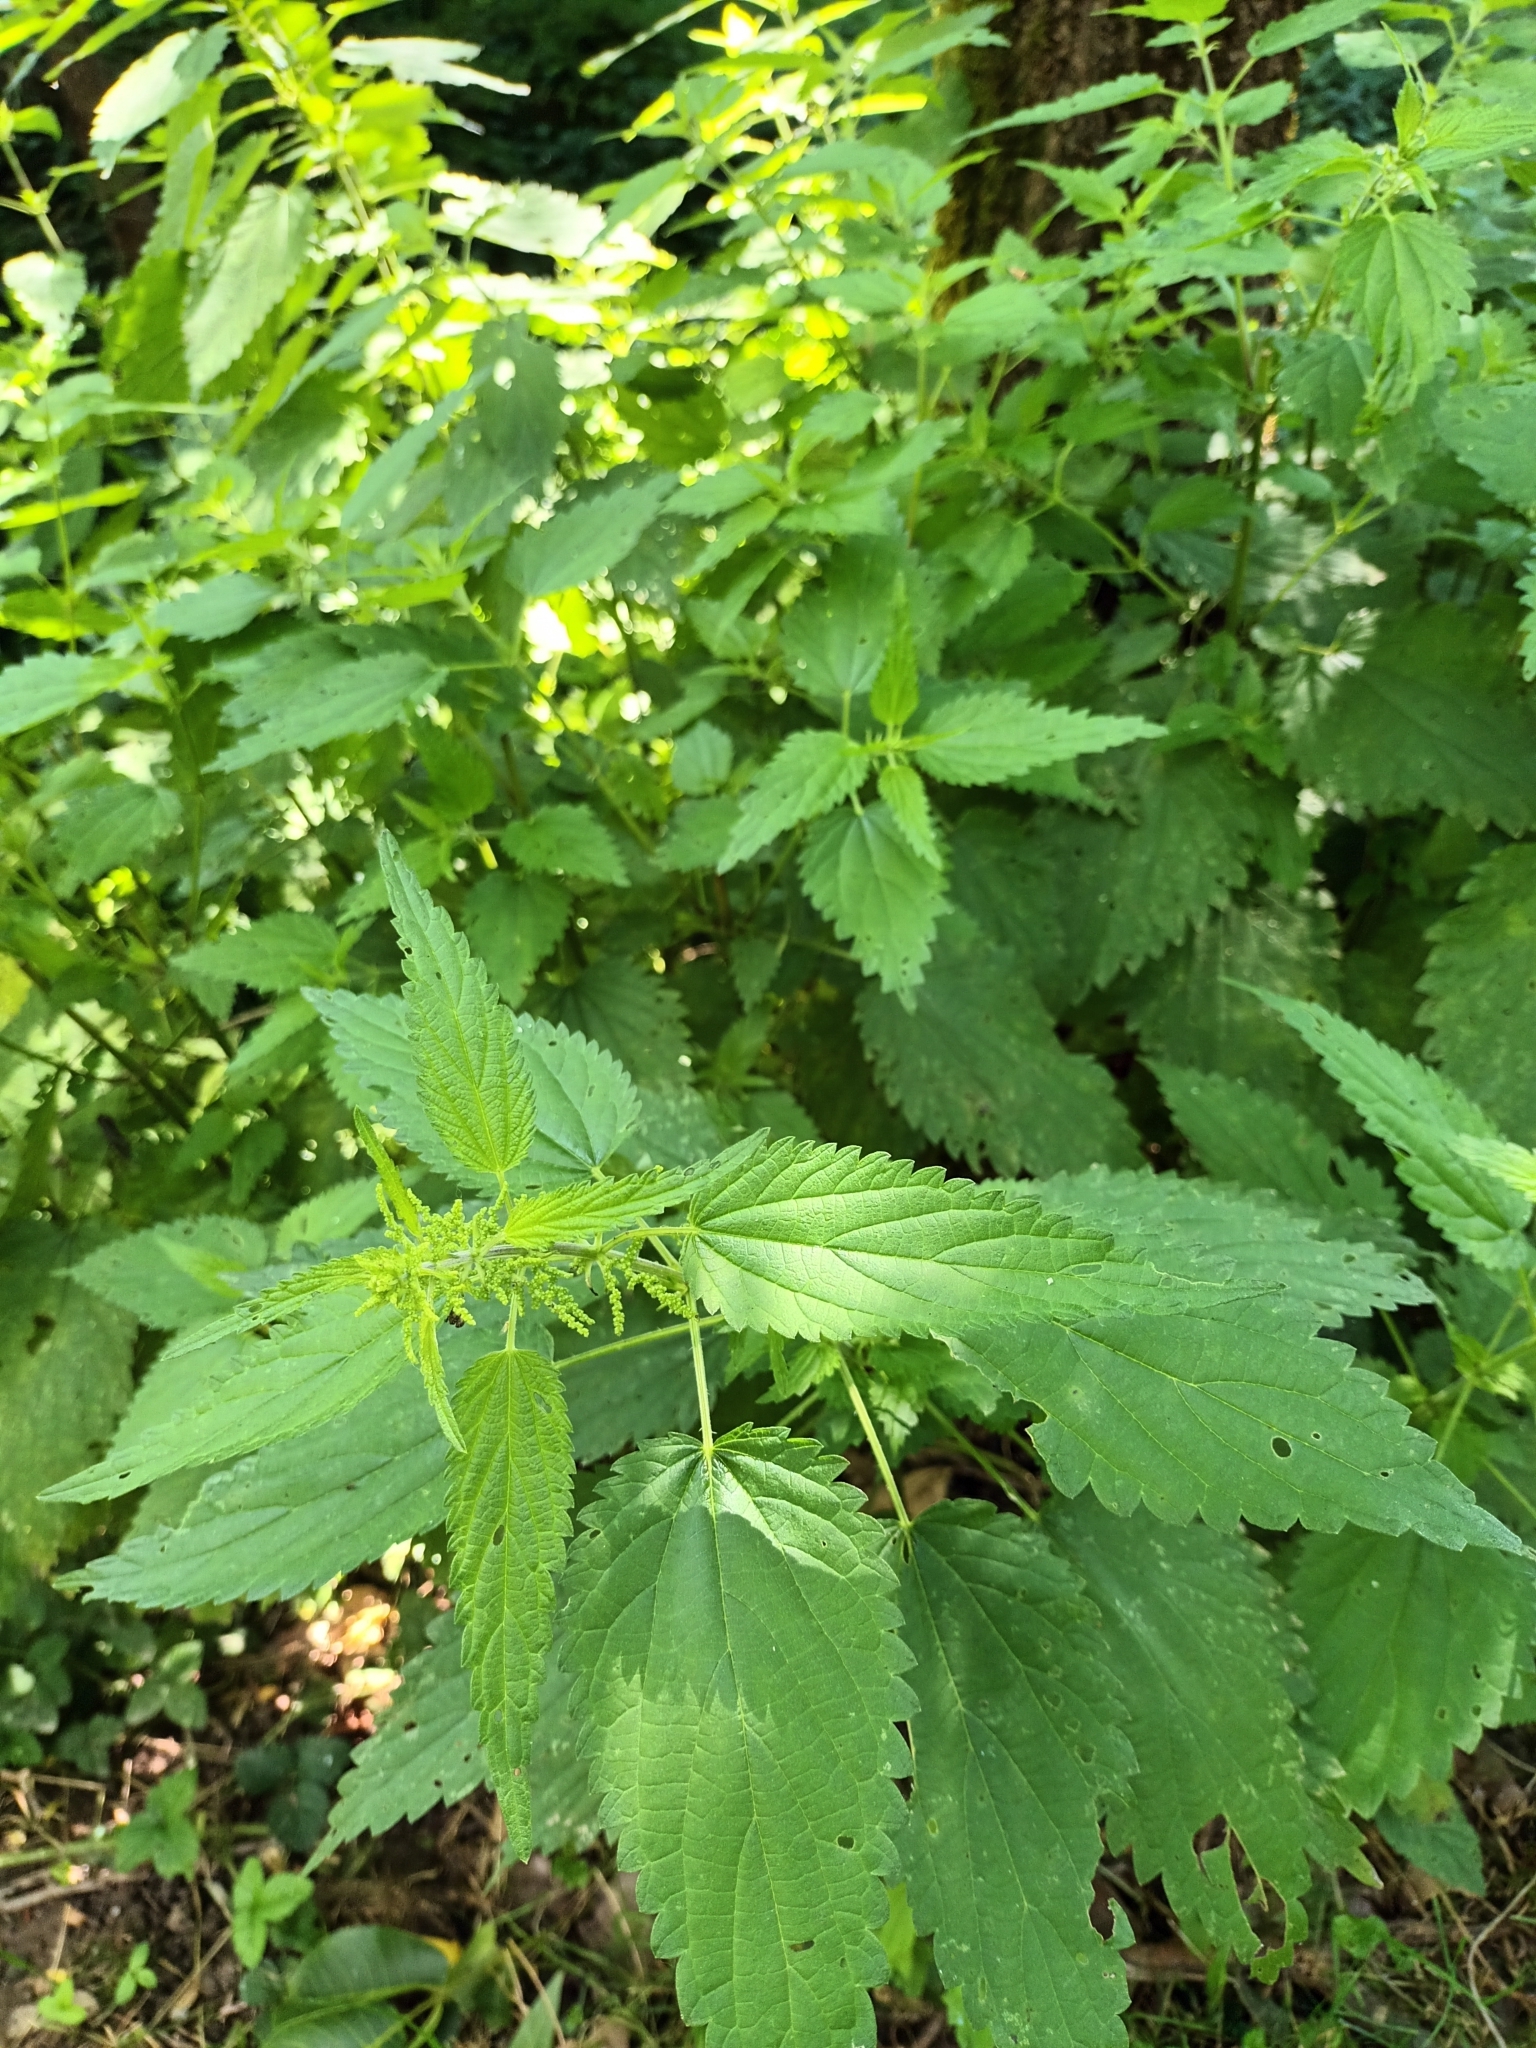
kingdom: Plantae
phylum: Tracheophyta
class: Magnoliopsida
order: Rosales
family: Urticaceae
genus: Urtica
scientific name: Urtica dioica
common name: Common nettle
